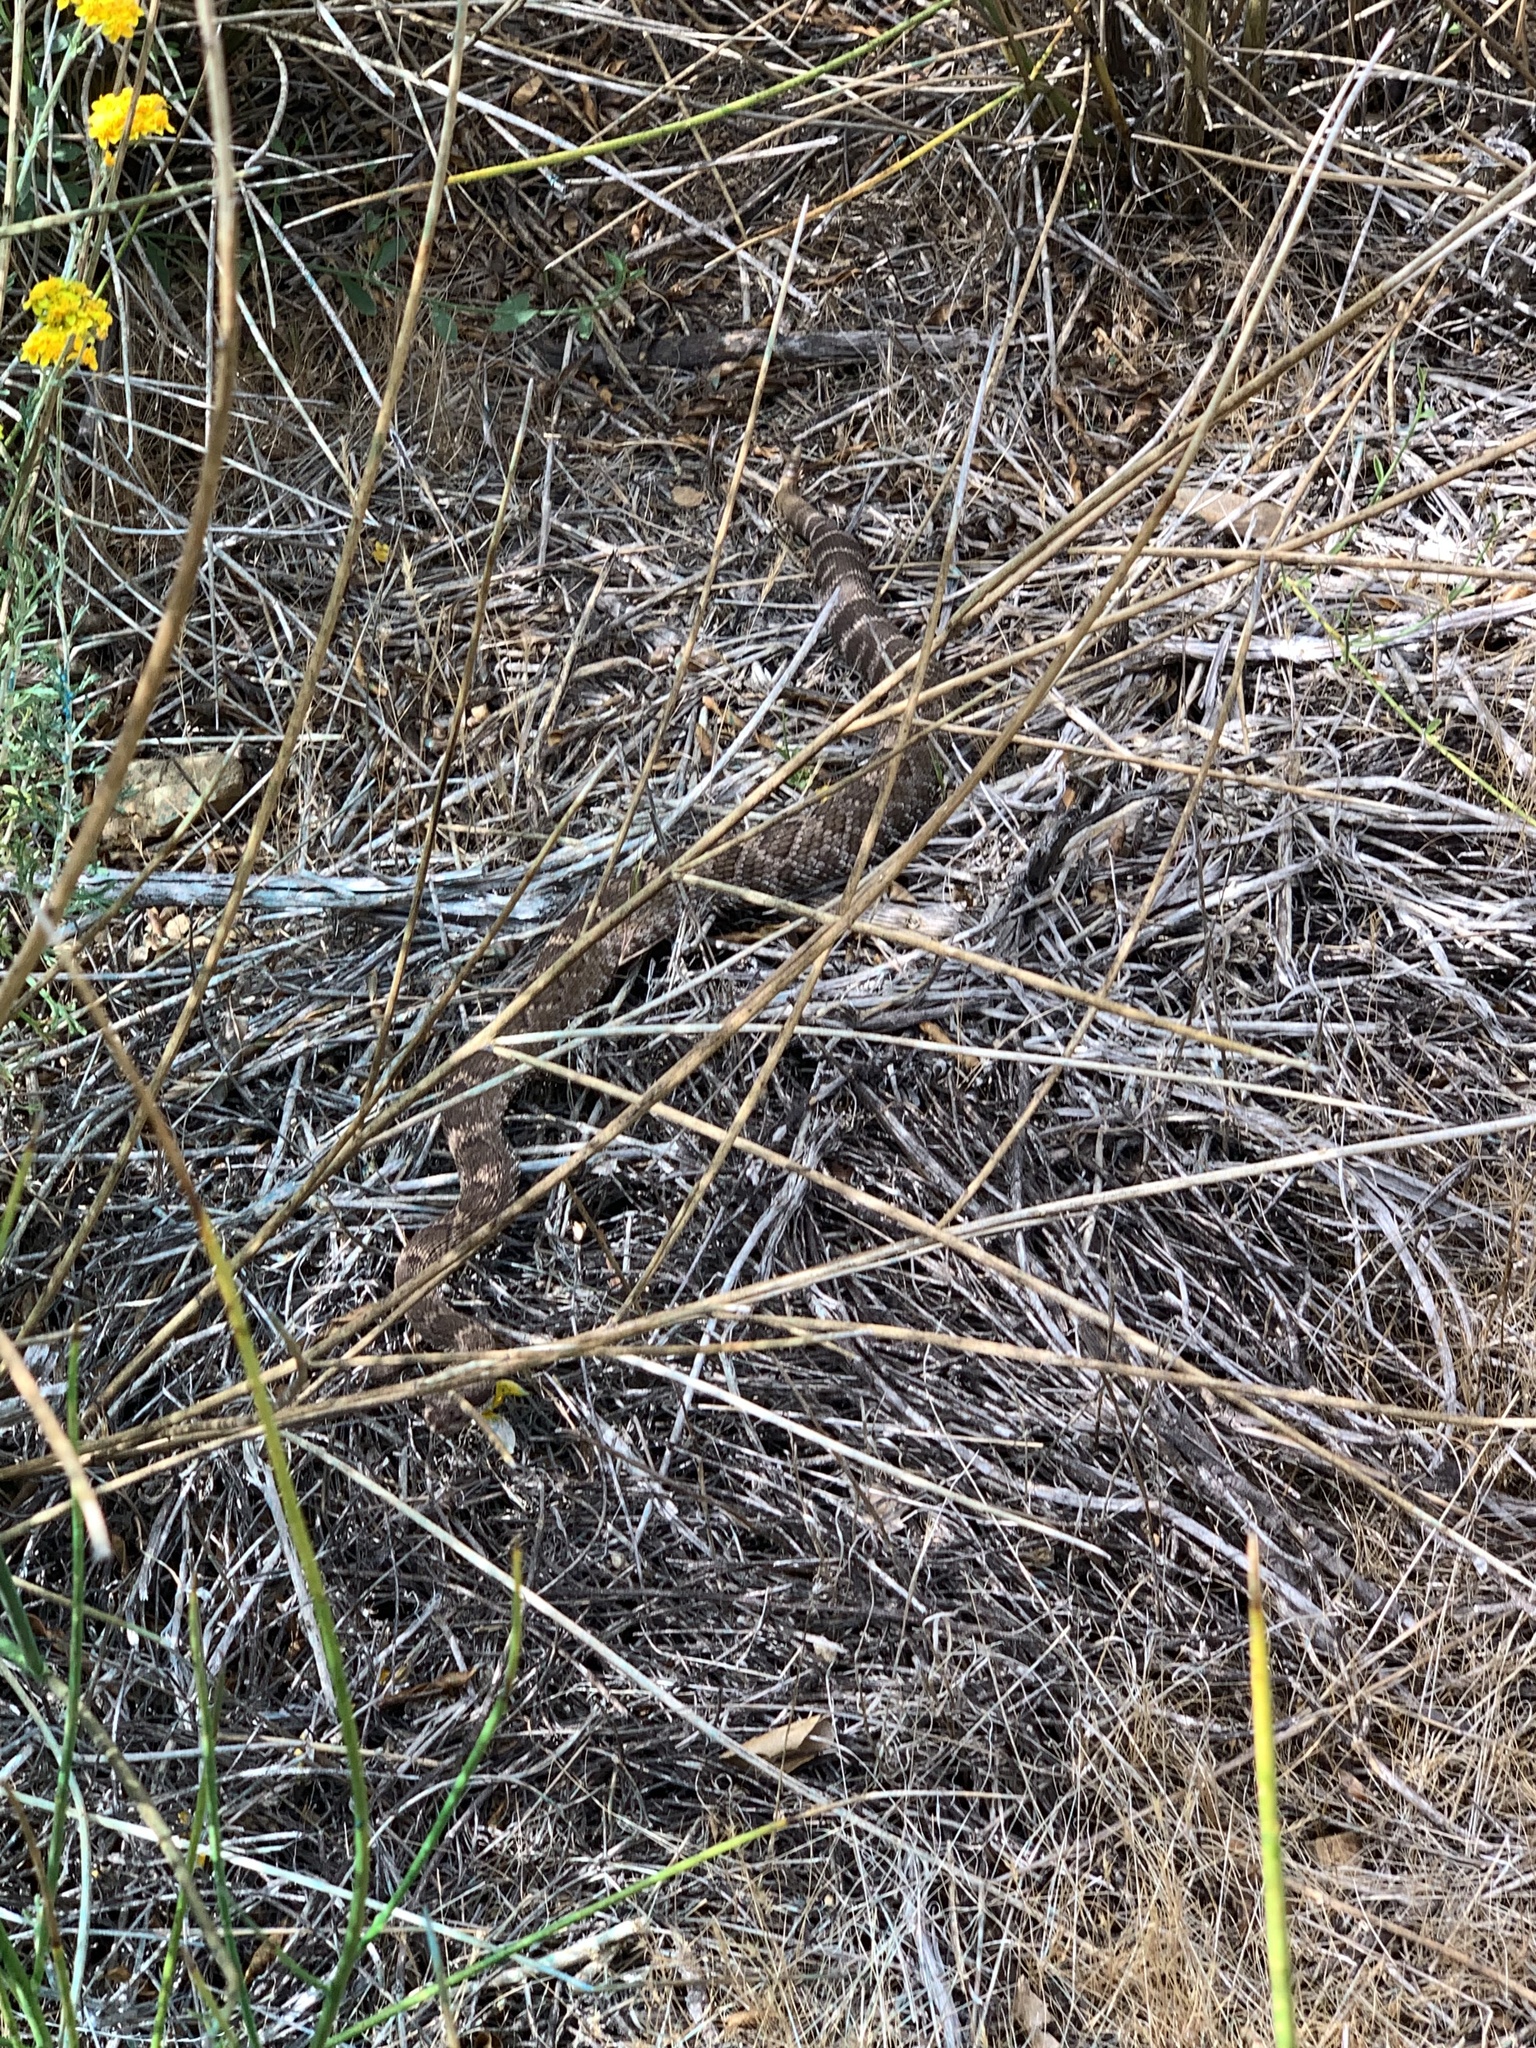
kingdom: Animalia
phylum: Chordata
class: Squamata
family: Viperidae
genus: Crotalus
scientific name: Crotalus oreganus
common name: Abyssus
